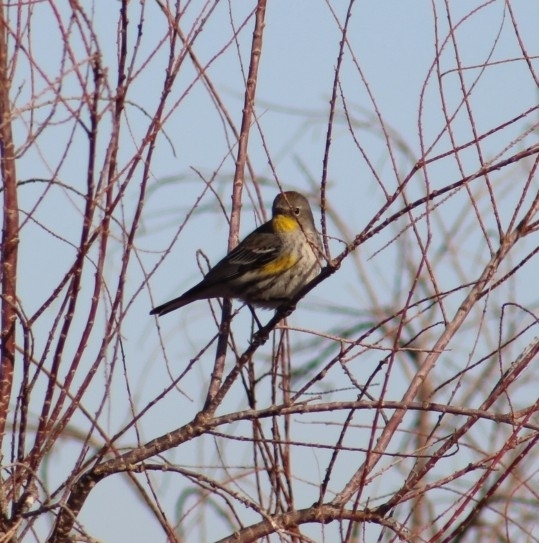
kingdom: Animalia
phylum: Chordata
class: Aves
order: Passeriformes
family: Parulidae
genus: Setophaga
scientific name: Setophaga coronata
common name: Myrtle warbler
